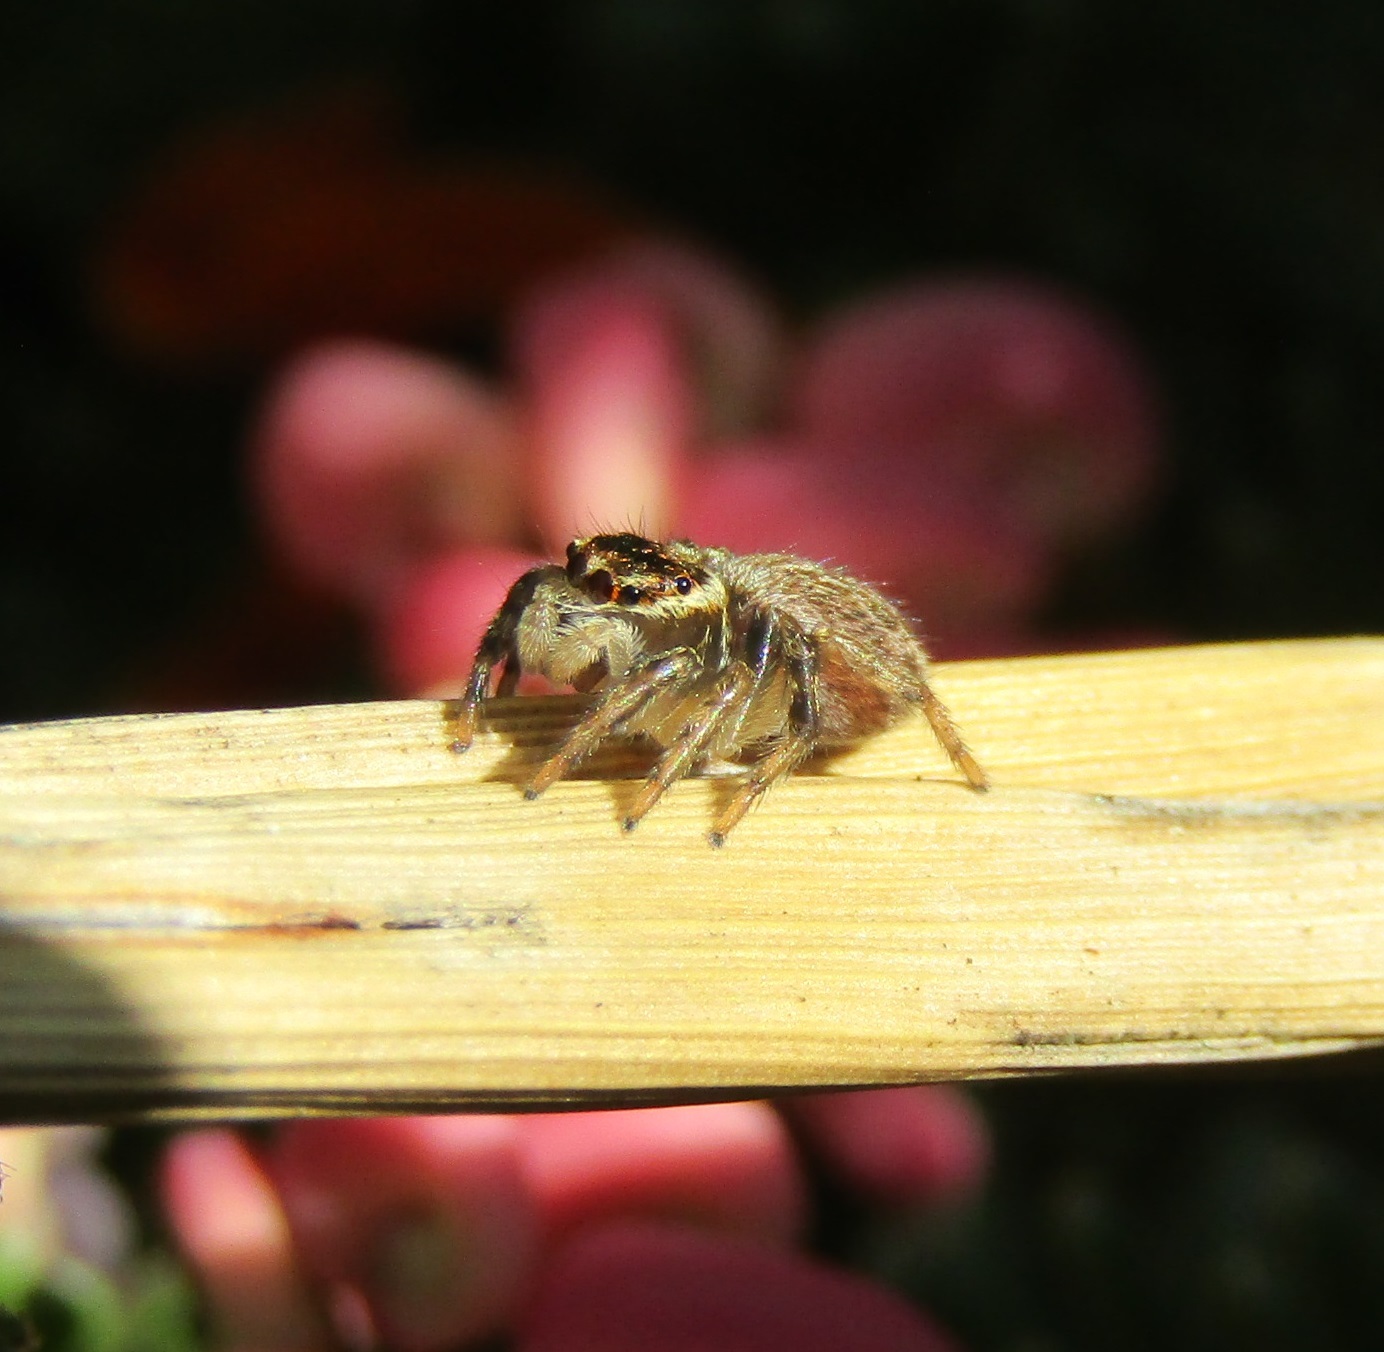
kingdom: Animalia
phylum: Arthropoda
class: Arachnida
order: Araneae
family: Salticidae
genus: Maratus
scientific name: Maratus griseus
